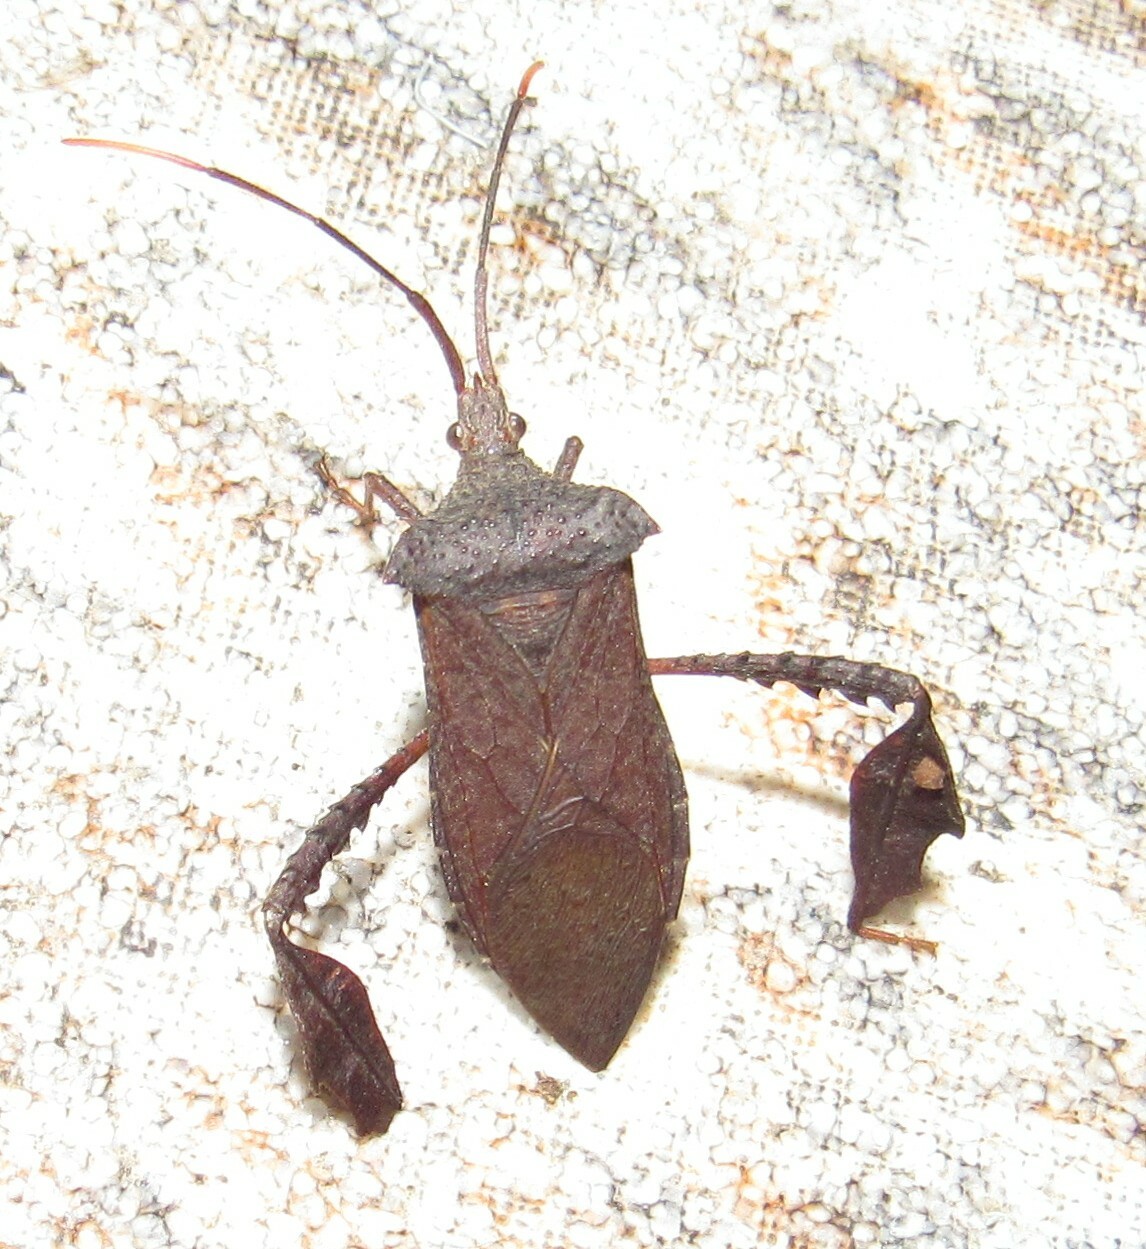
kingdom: Animalia
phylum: Arthropoda
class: Insecta
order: Hemiptera
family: Coreidae
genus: Empedocles
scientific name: Empedocles luridus
